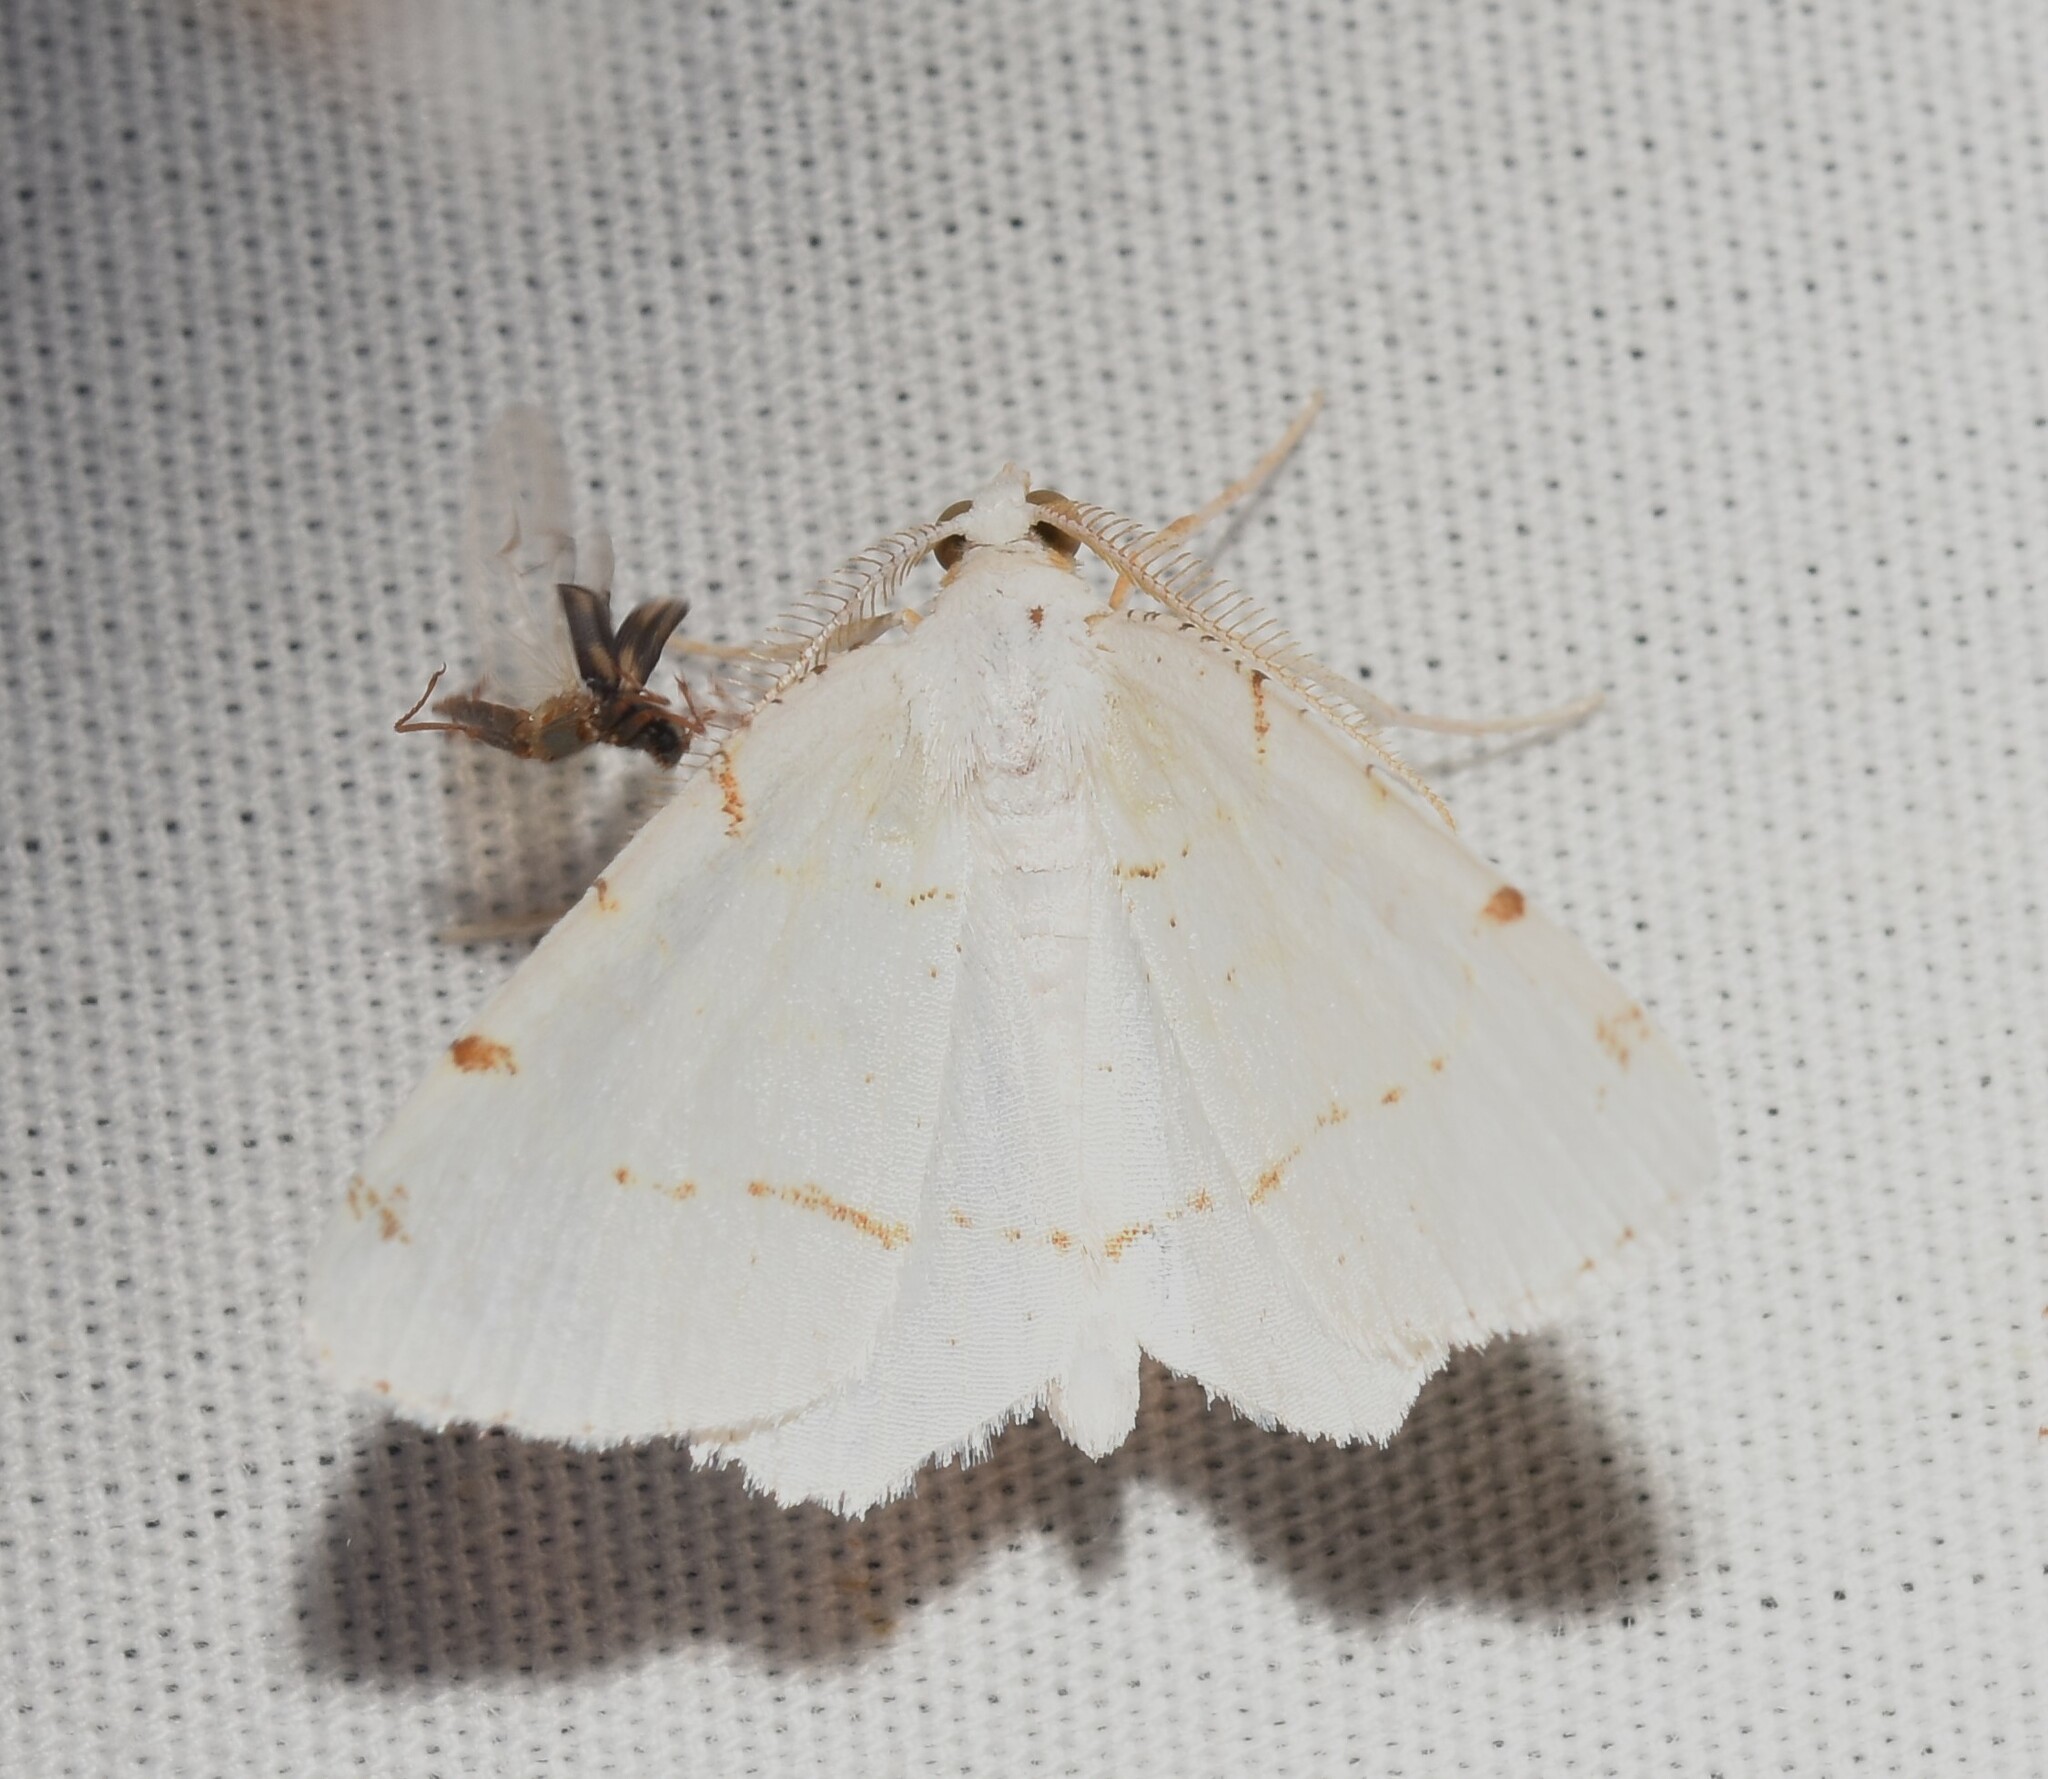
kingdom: Animalia
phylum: Arthropoda
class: Insecta
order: Lepidoptera
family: Geometridae
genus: Macaria
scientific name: Macaria pustularia
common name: Lesser maple spanworm moth
